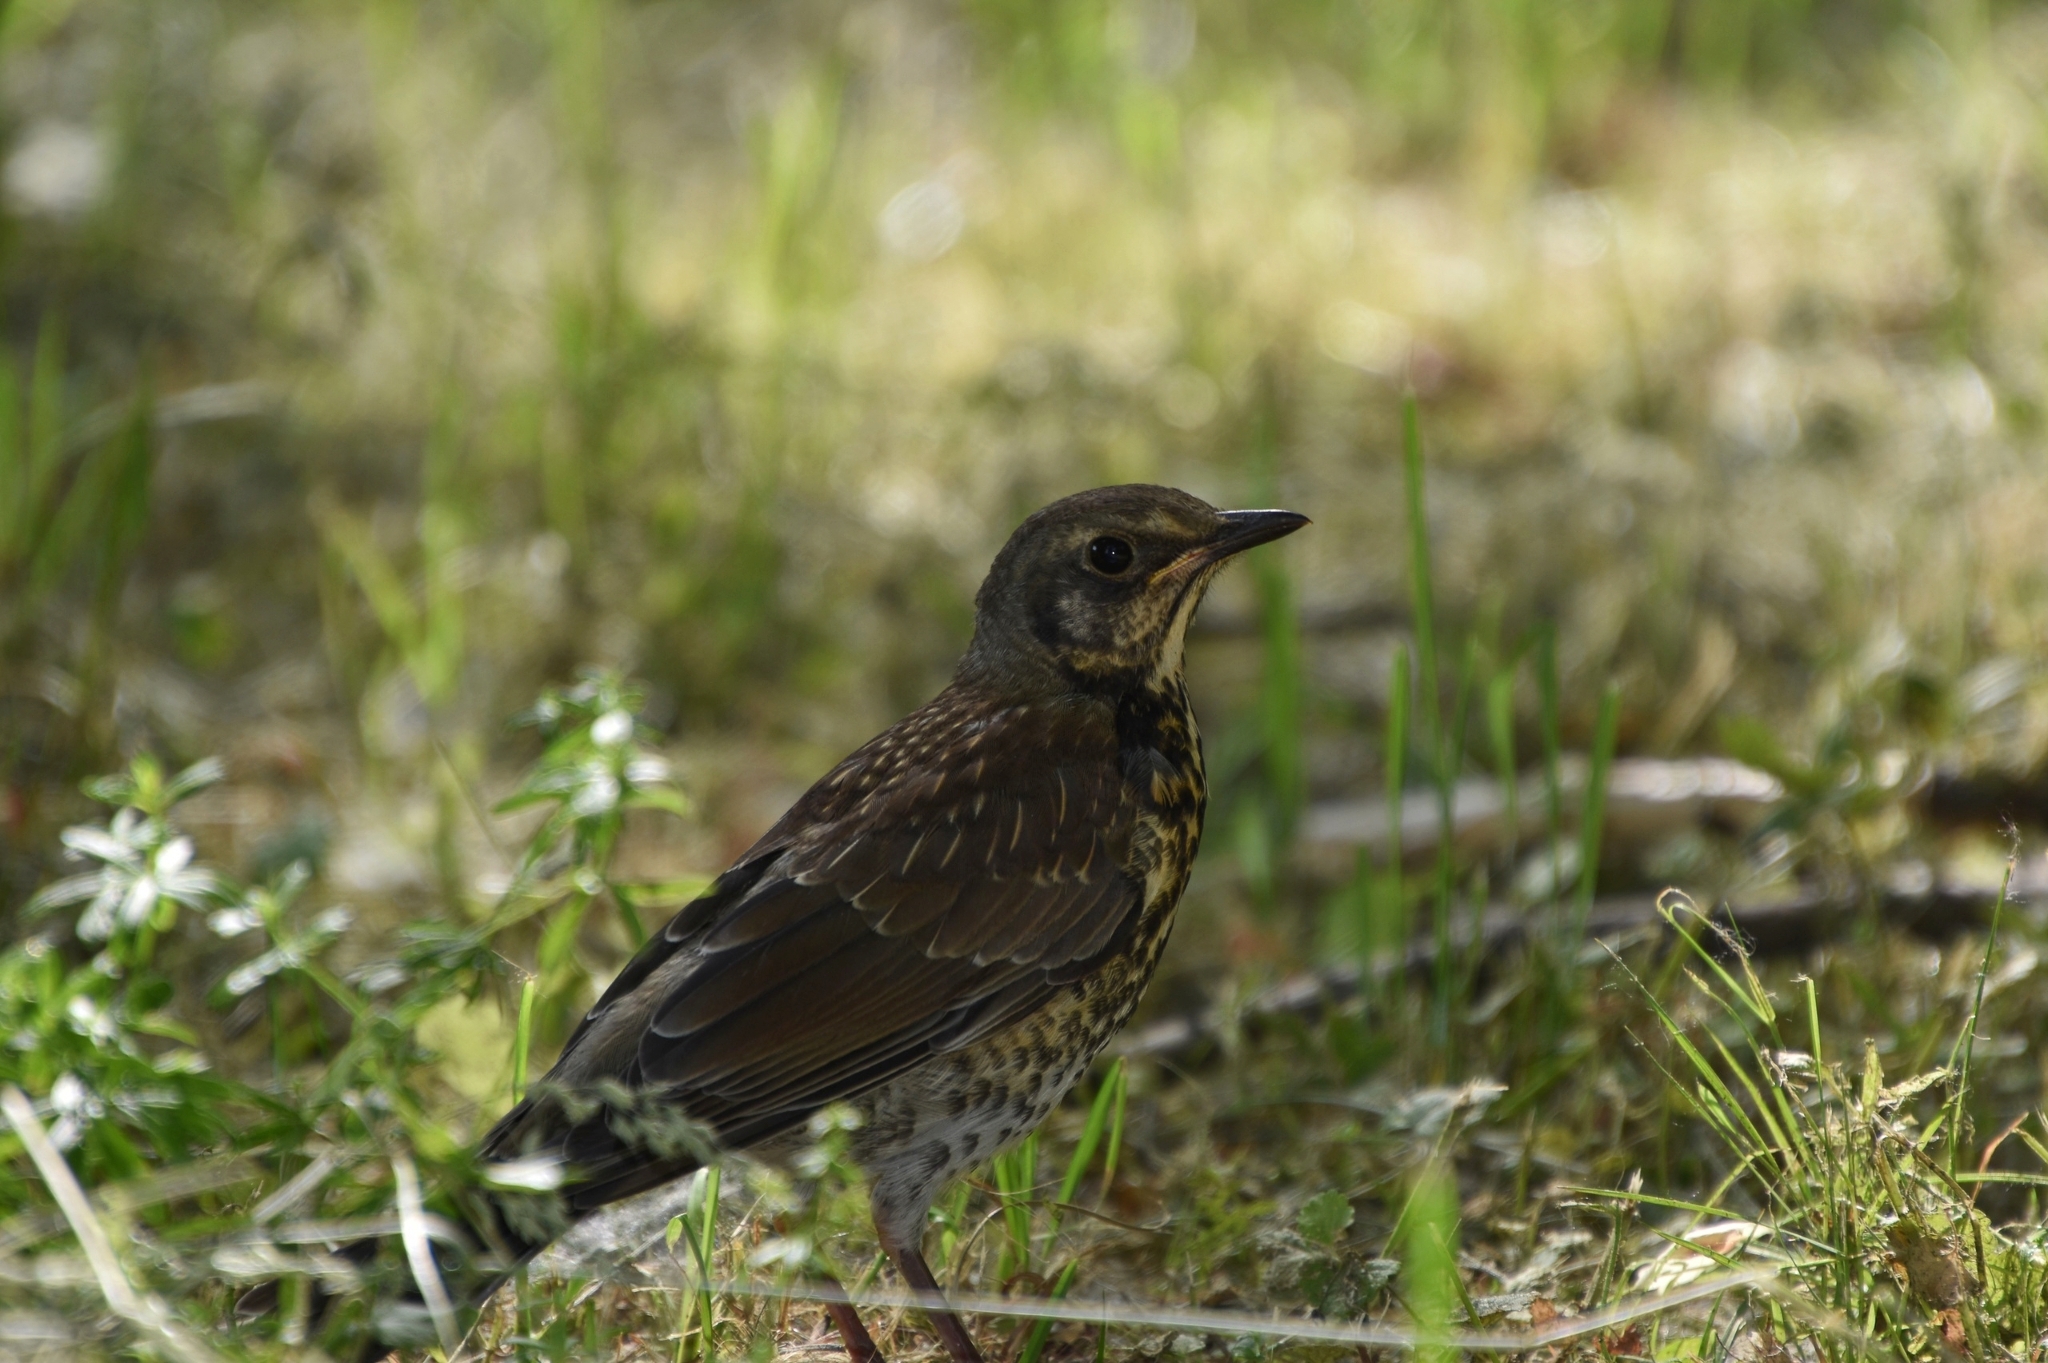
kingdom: Animalia
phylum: Chordata
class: Aves
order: Passeriformes
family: Turdidae
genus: Turdus
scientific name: Turdus pilaris
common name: Fieldfare
